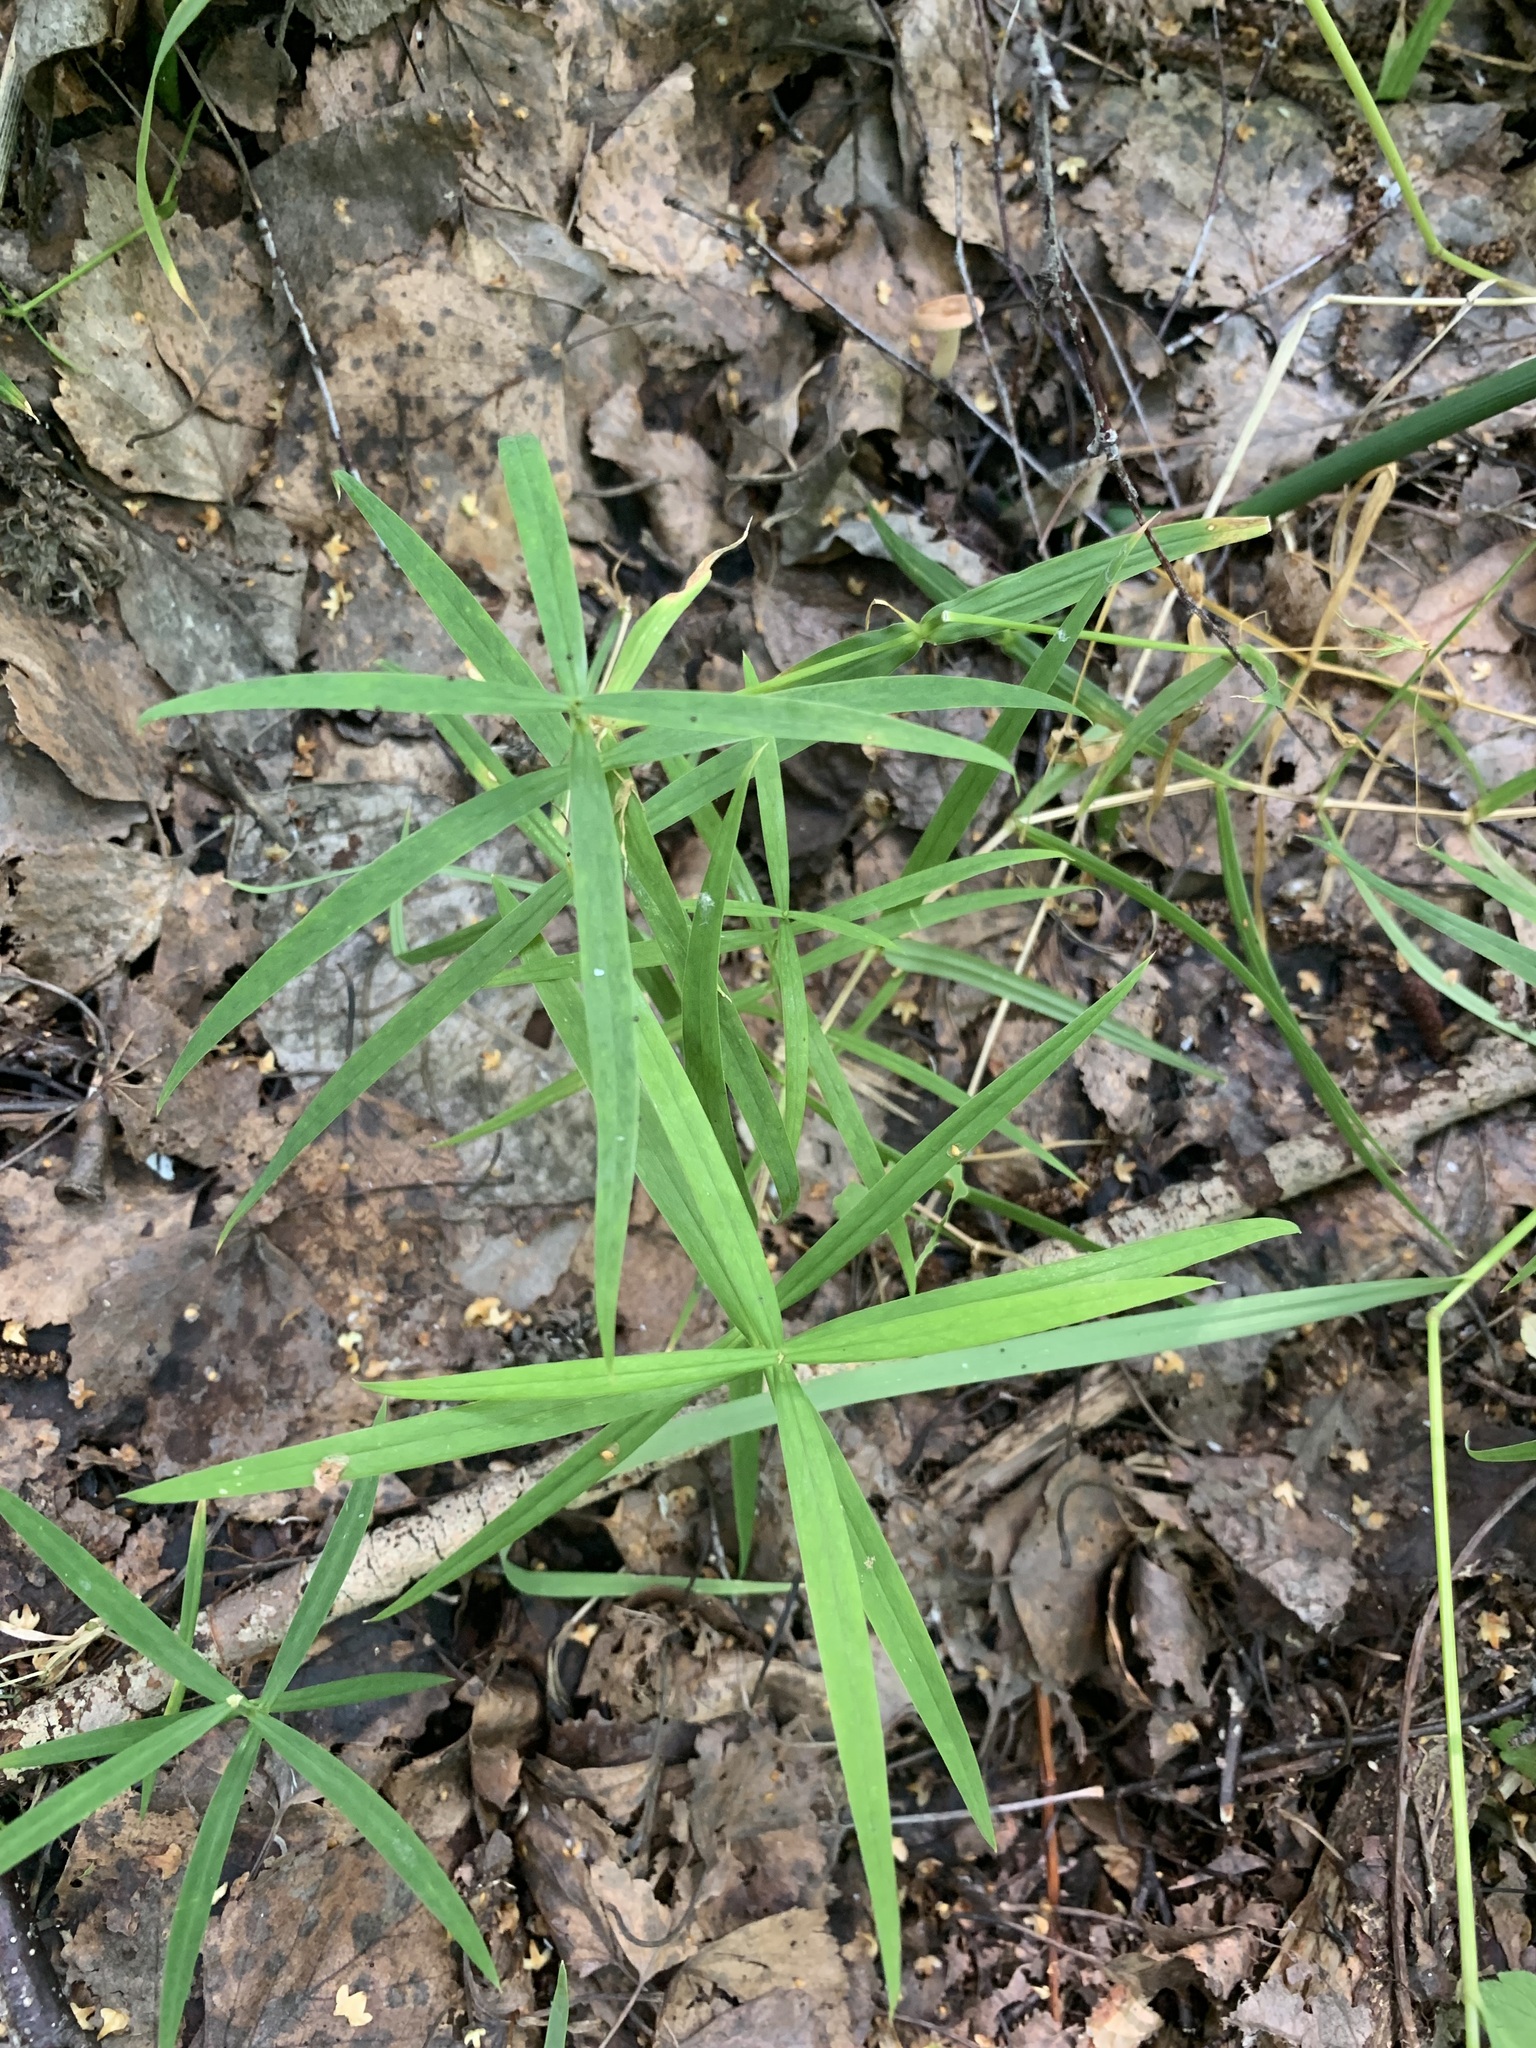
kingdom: Plantae
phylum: Tracheophyta
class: Magnoliopsida
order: Caryophyllales
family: Caryophyllaceae
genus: Rabelera
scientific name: Rabelera holostea
